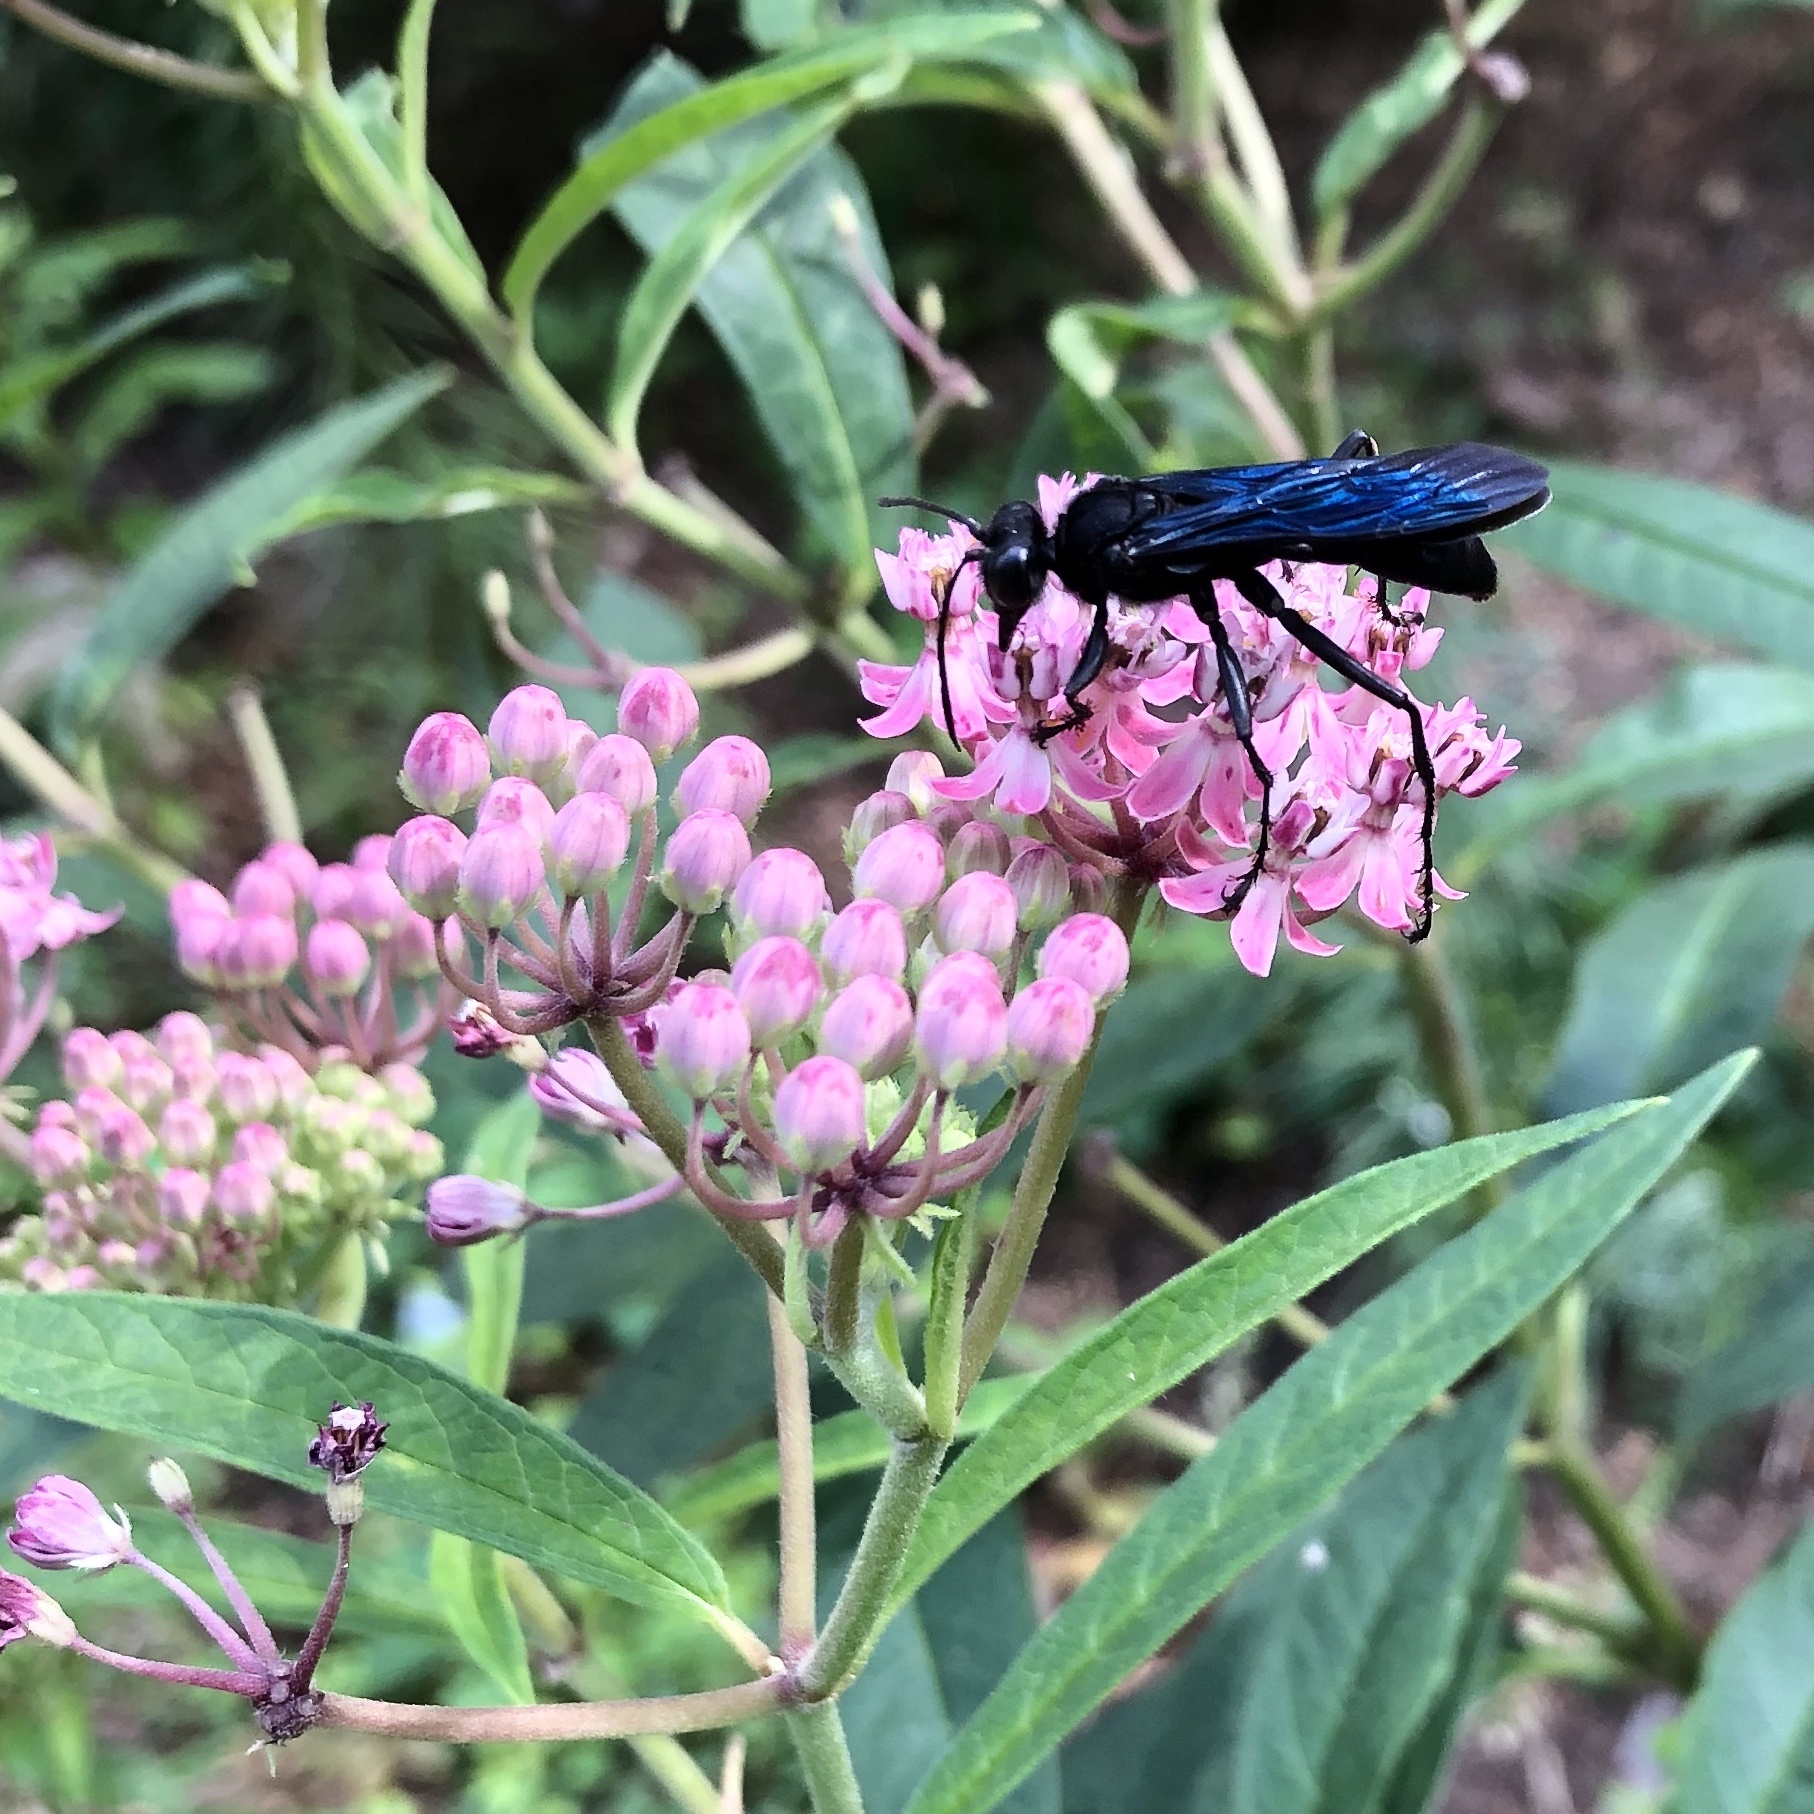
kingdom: Animalia
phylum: Arthropoda
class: Insecta
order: Hymenoptera
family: Sphecidae
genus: Sphex
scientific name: Sphex pensylvanicus
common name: Great black digger wasp
